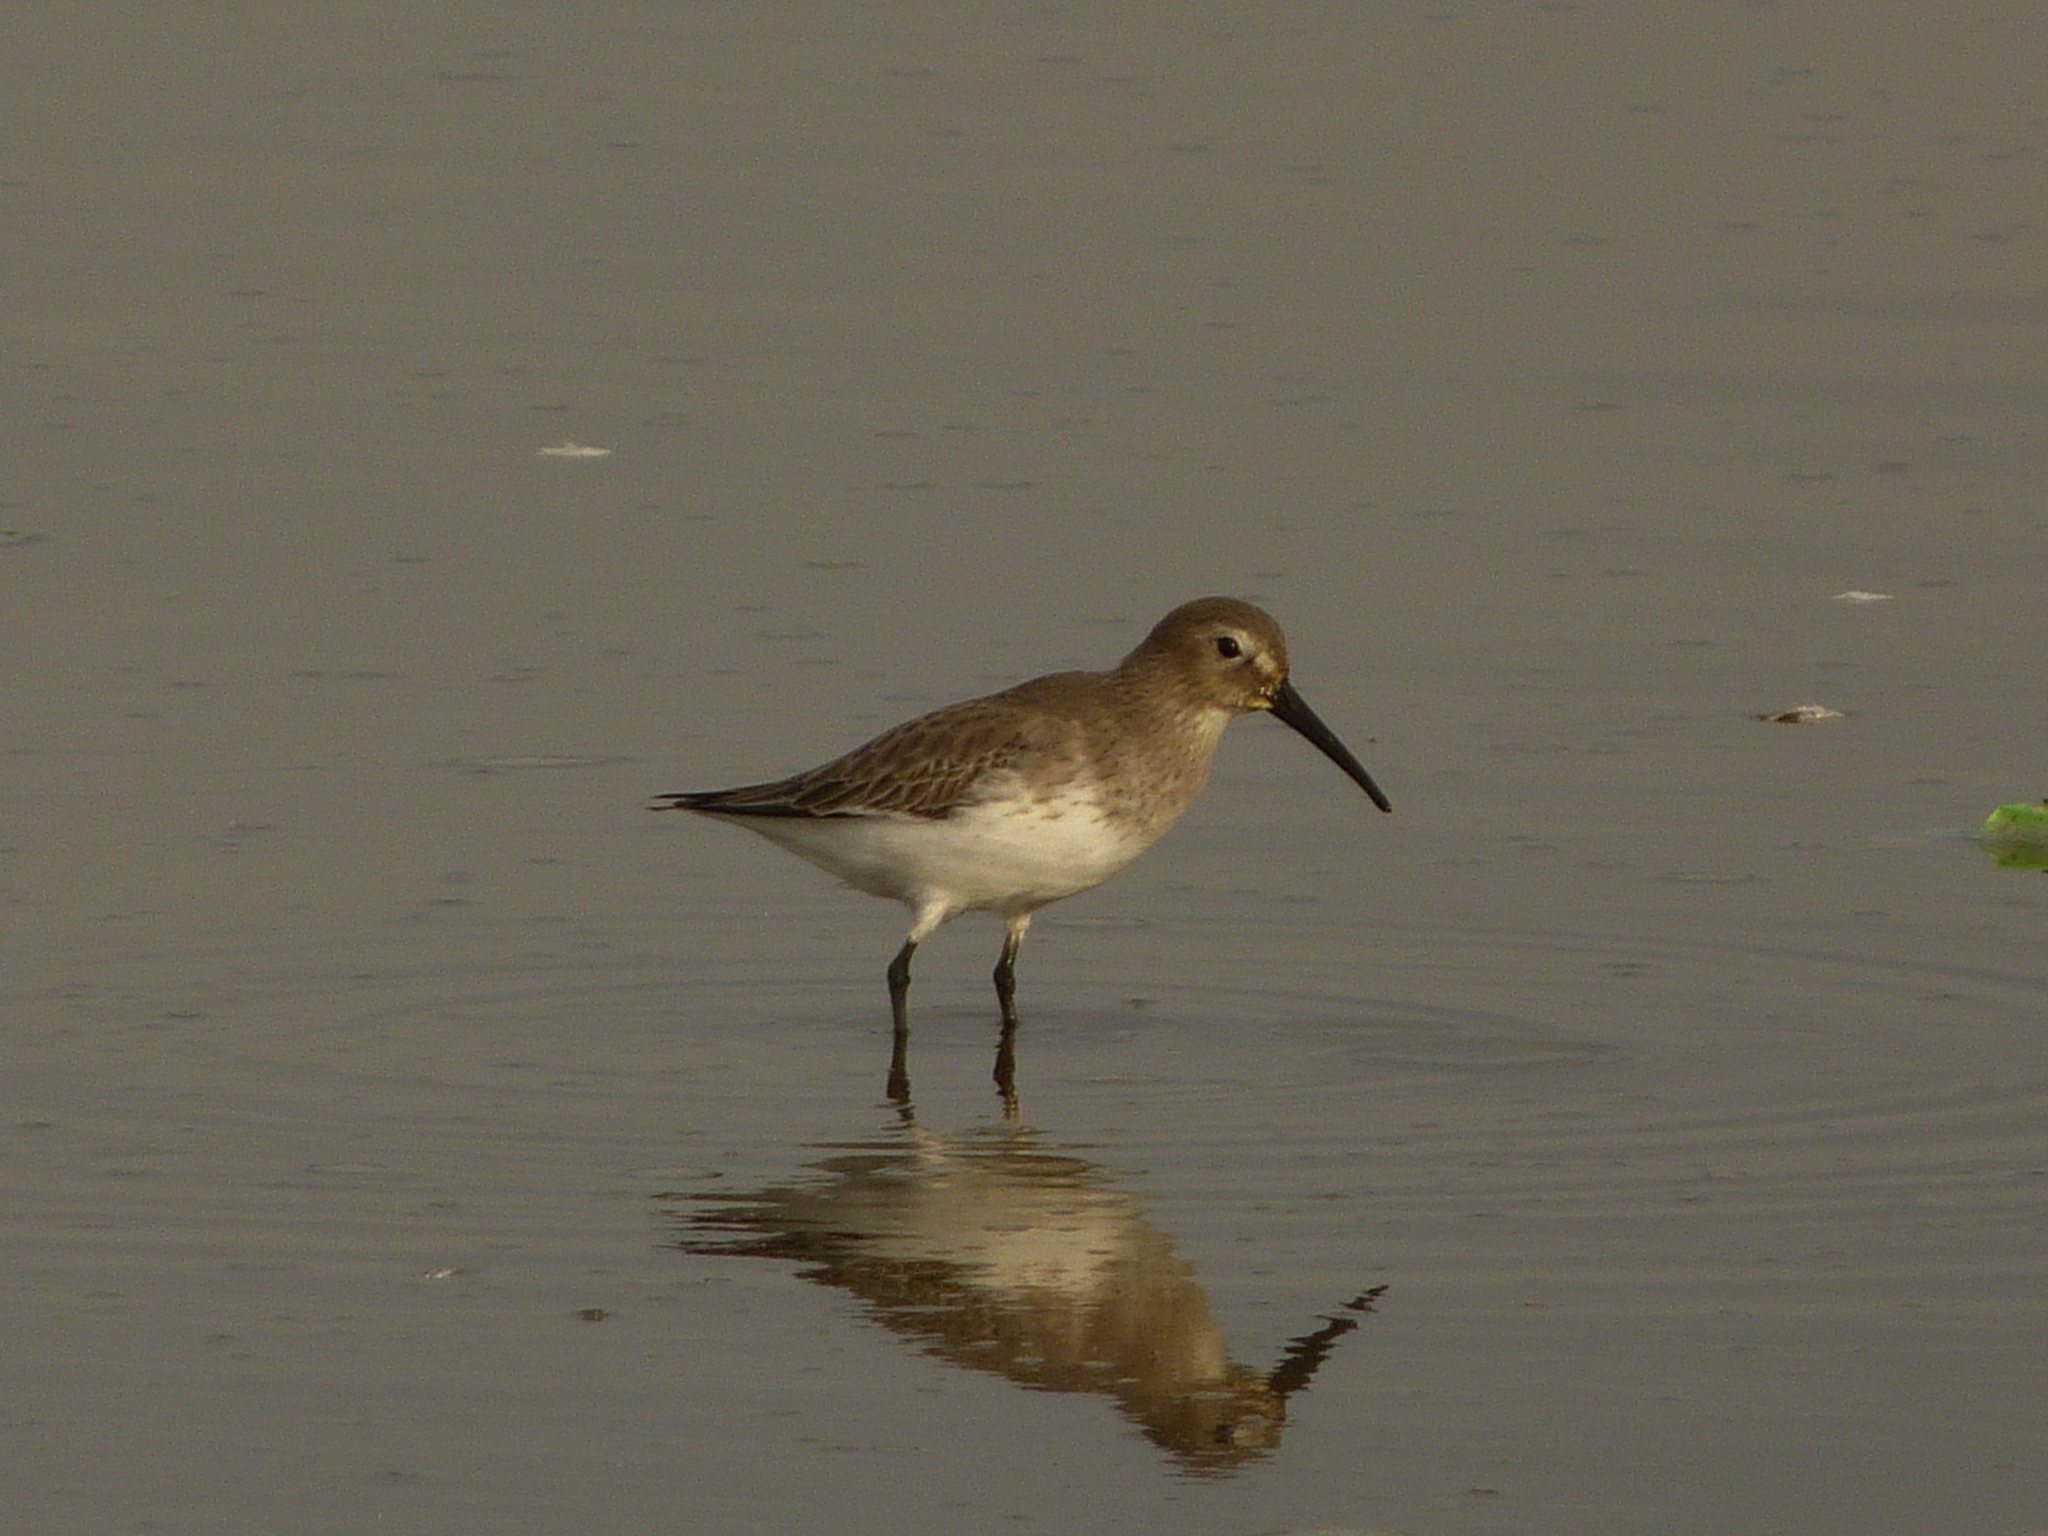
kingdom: Animalia
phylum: Chordata
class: Aves
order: Charadriiformes
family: Scolopacidae
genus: Calidris
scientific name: Calidris alpina
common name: Dunlin
